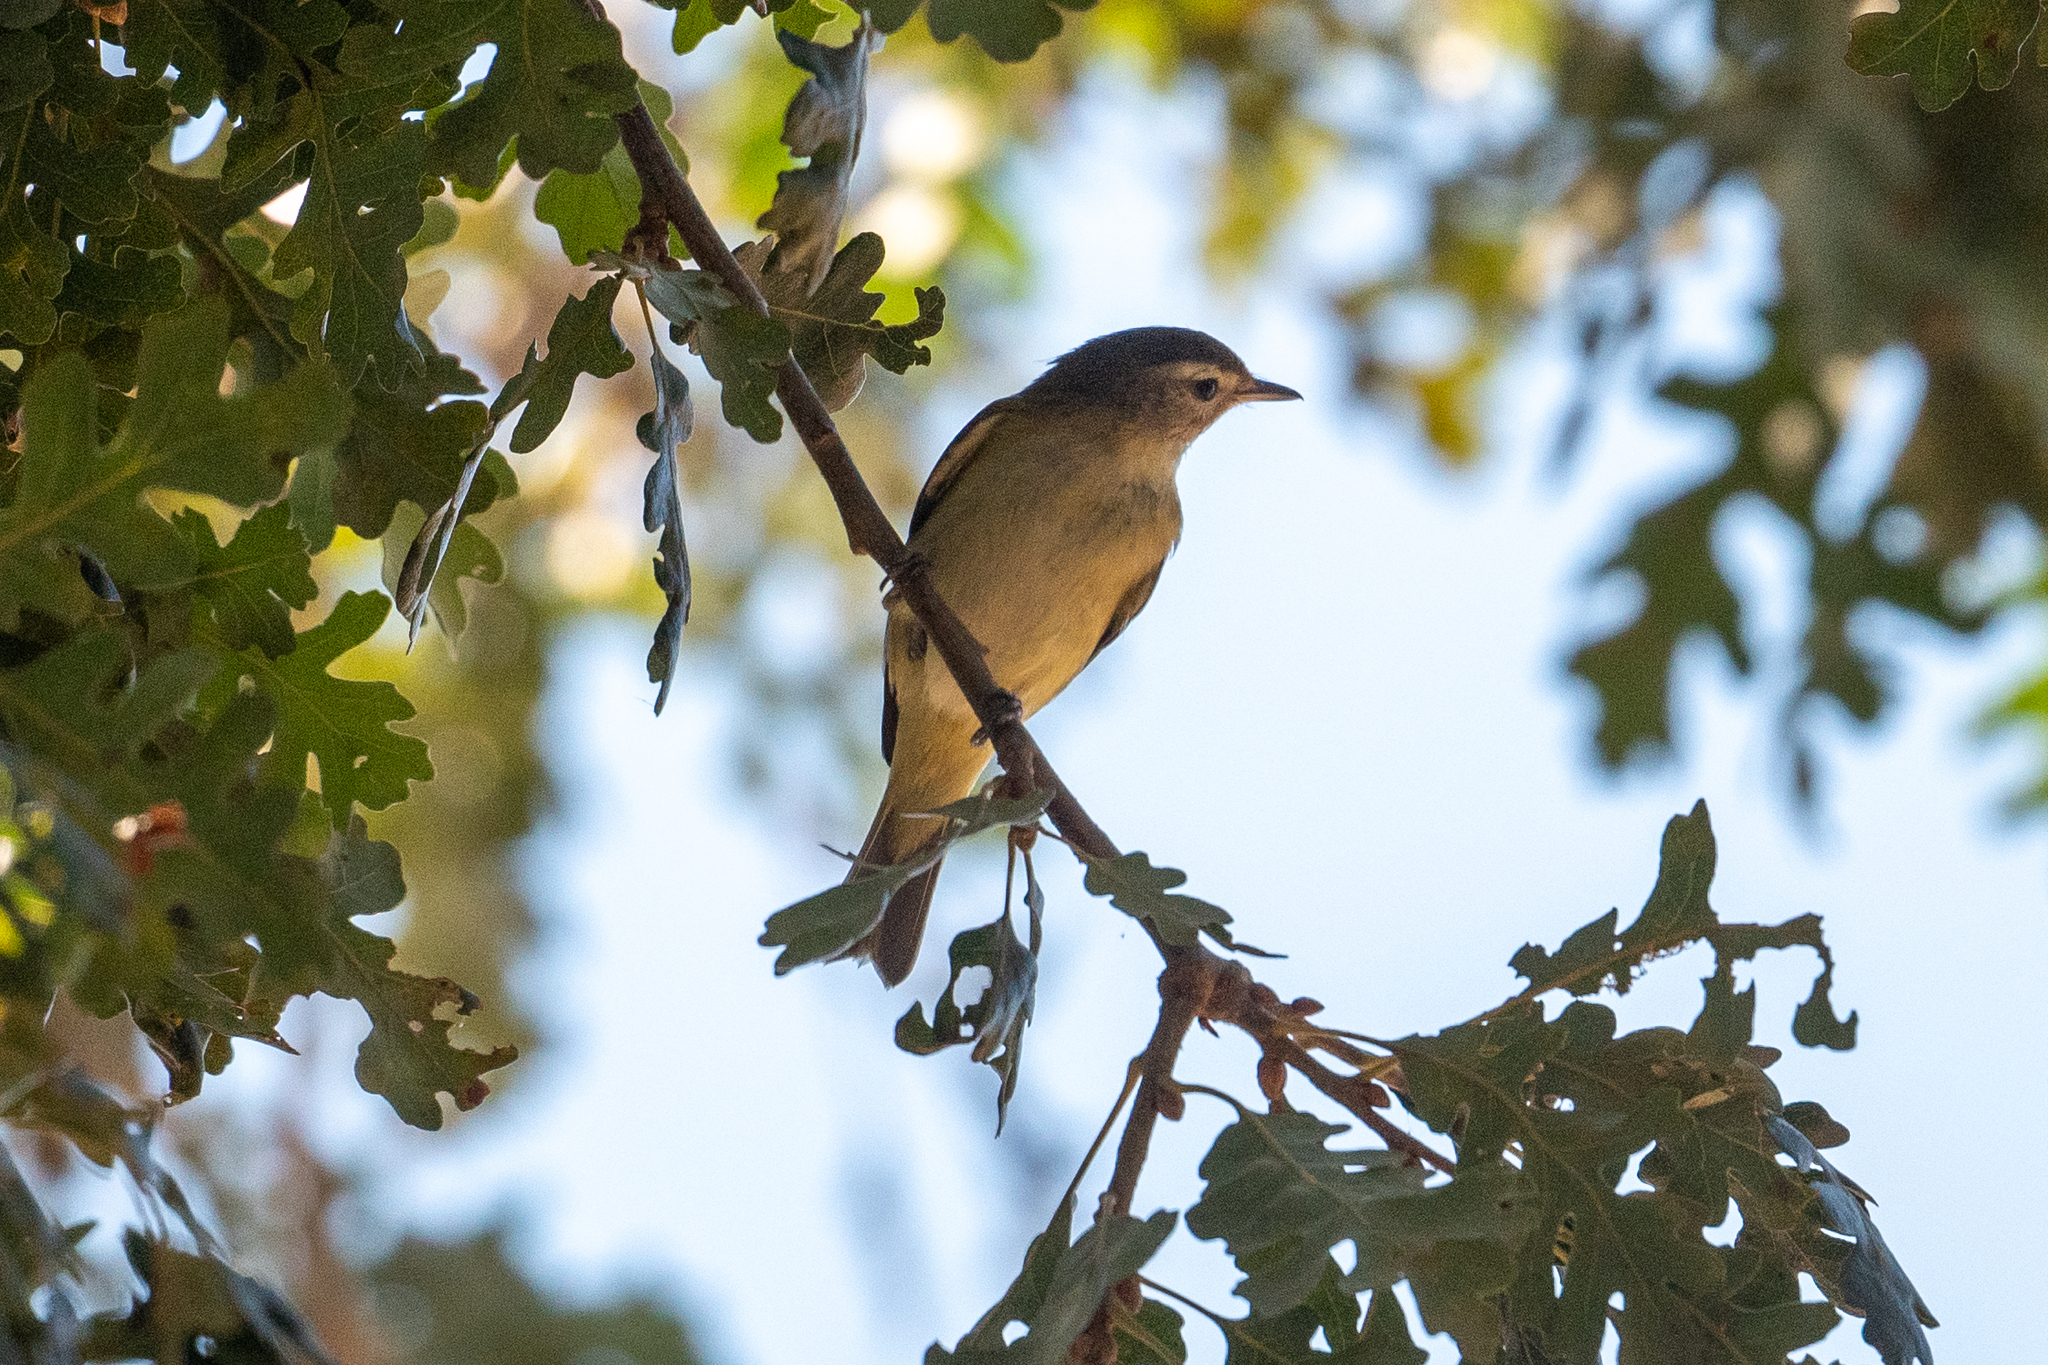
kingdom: Animalia
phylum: Chordata
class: Aves
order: Passeriformes
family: Vireonidae
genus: Vireo
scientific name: Vireo gilvus
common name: Warbling vireo
